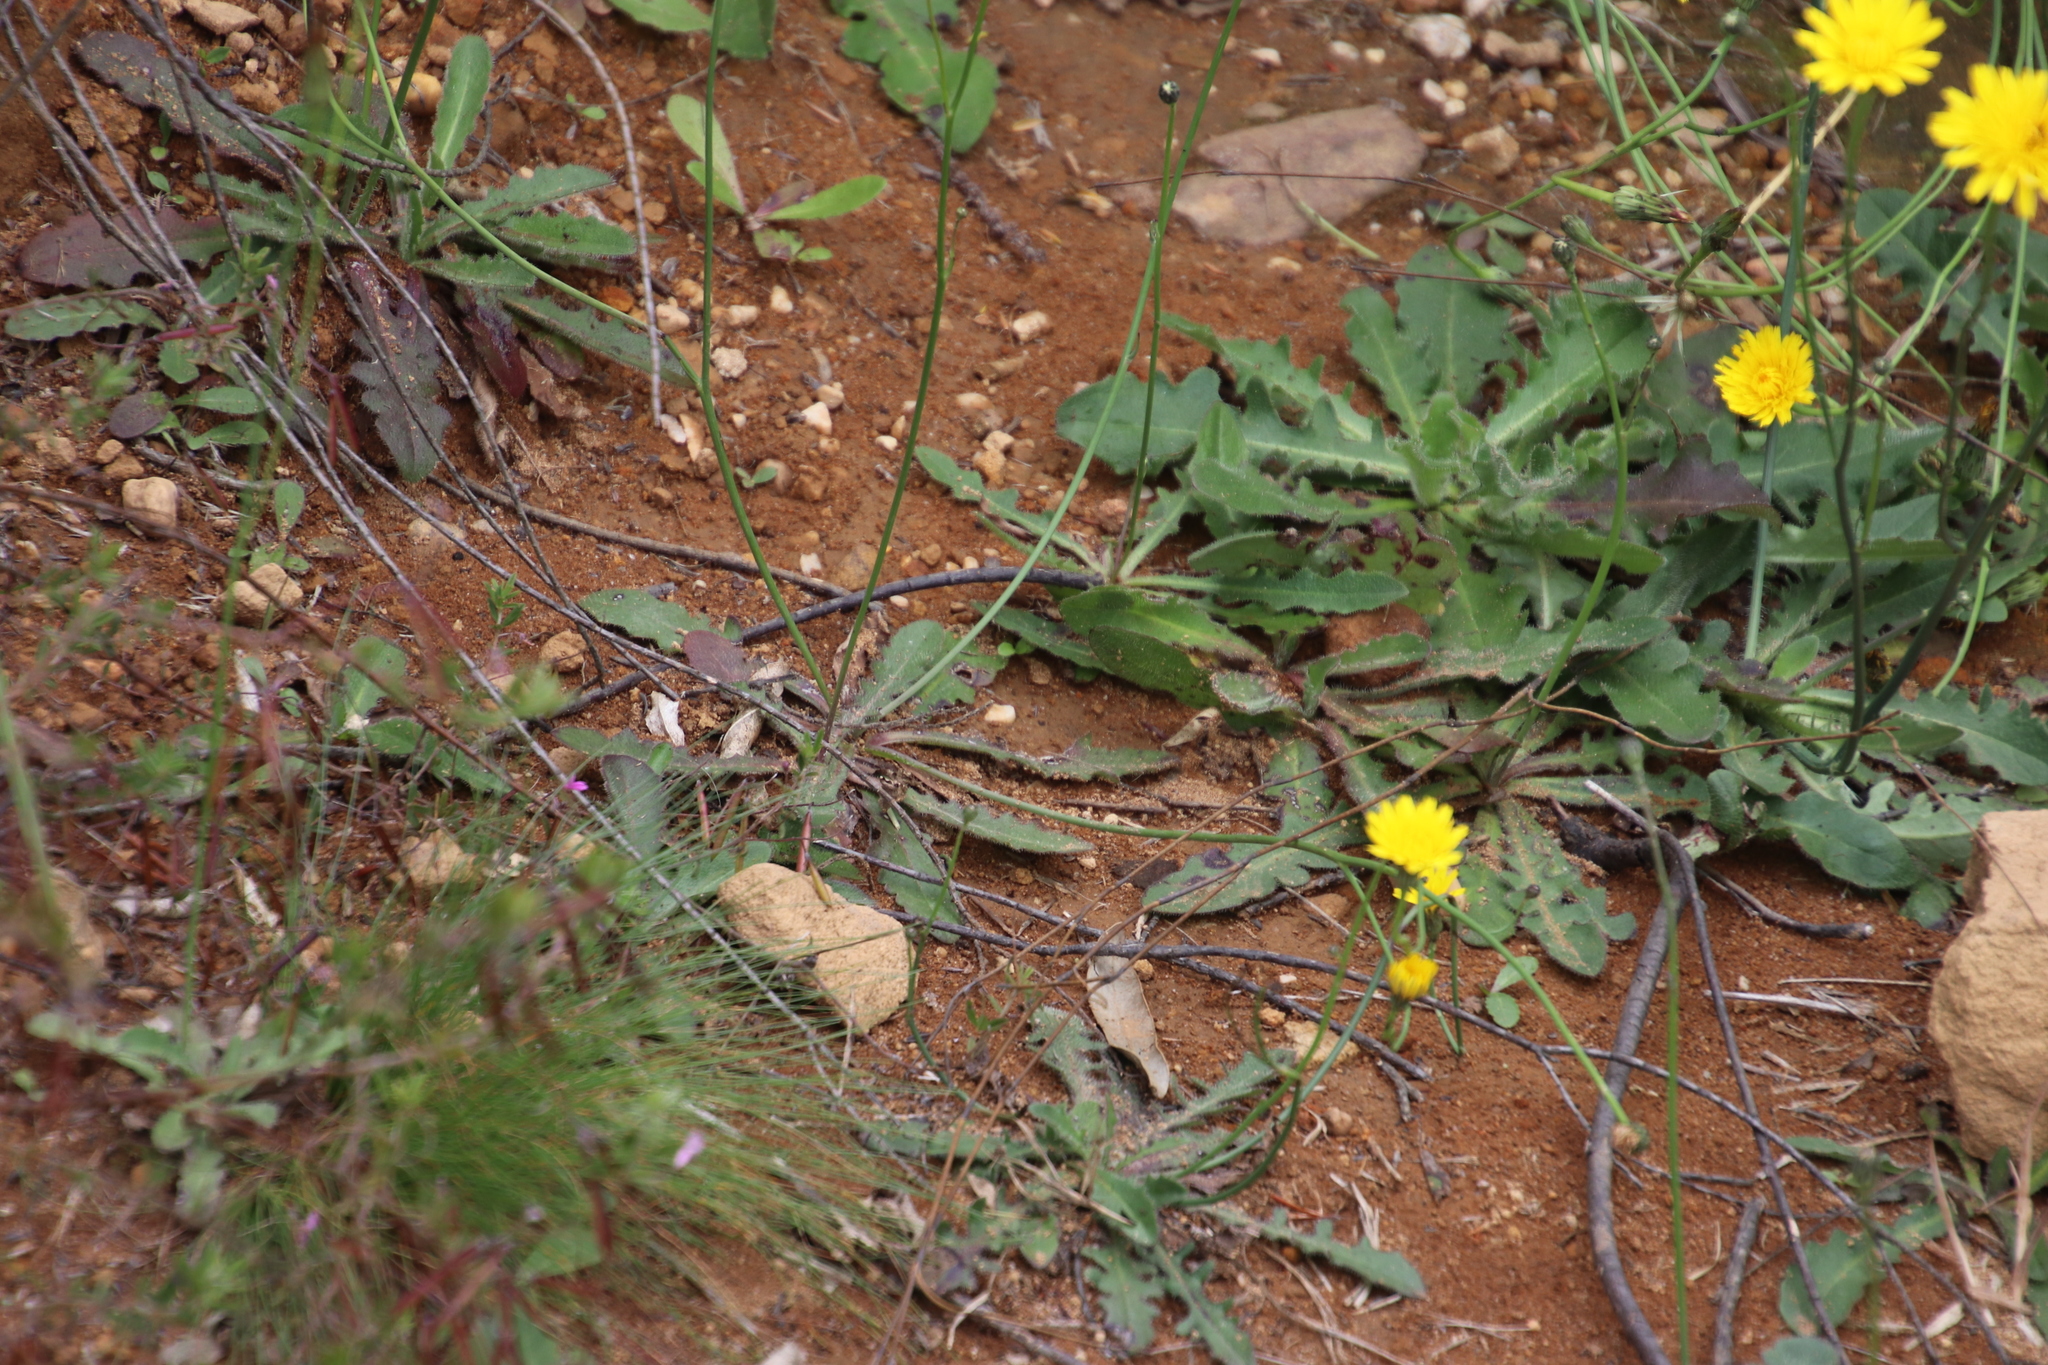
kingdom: Plantae
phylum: Tracheophyta
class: Magnoliopsida
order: Asterales
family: Asteraceae
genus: Hypochaeris
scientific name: Hypochaeris radicata
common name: Flatweed
